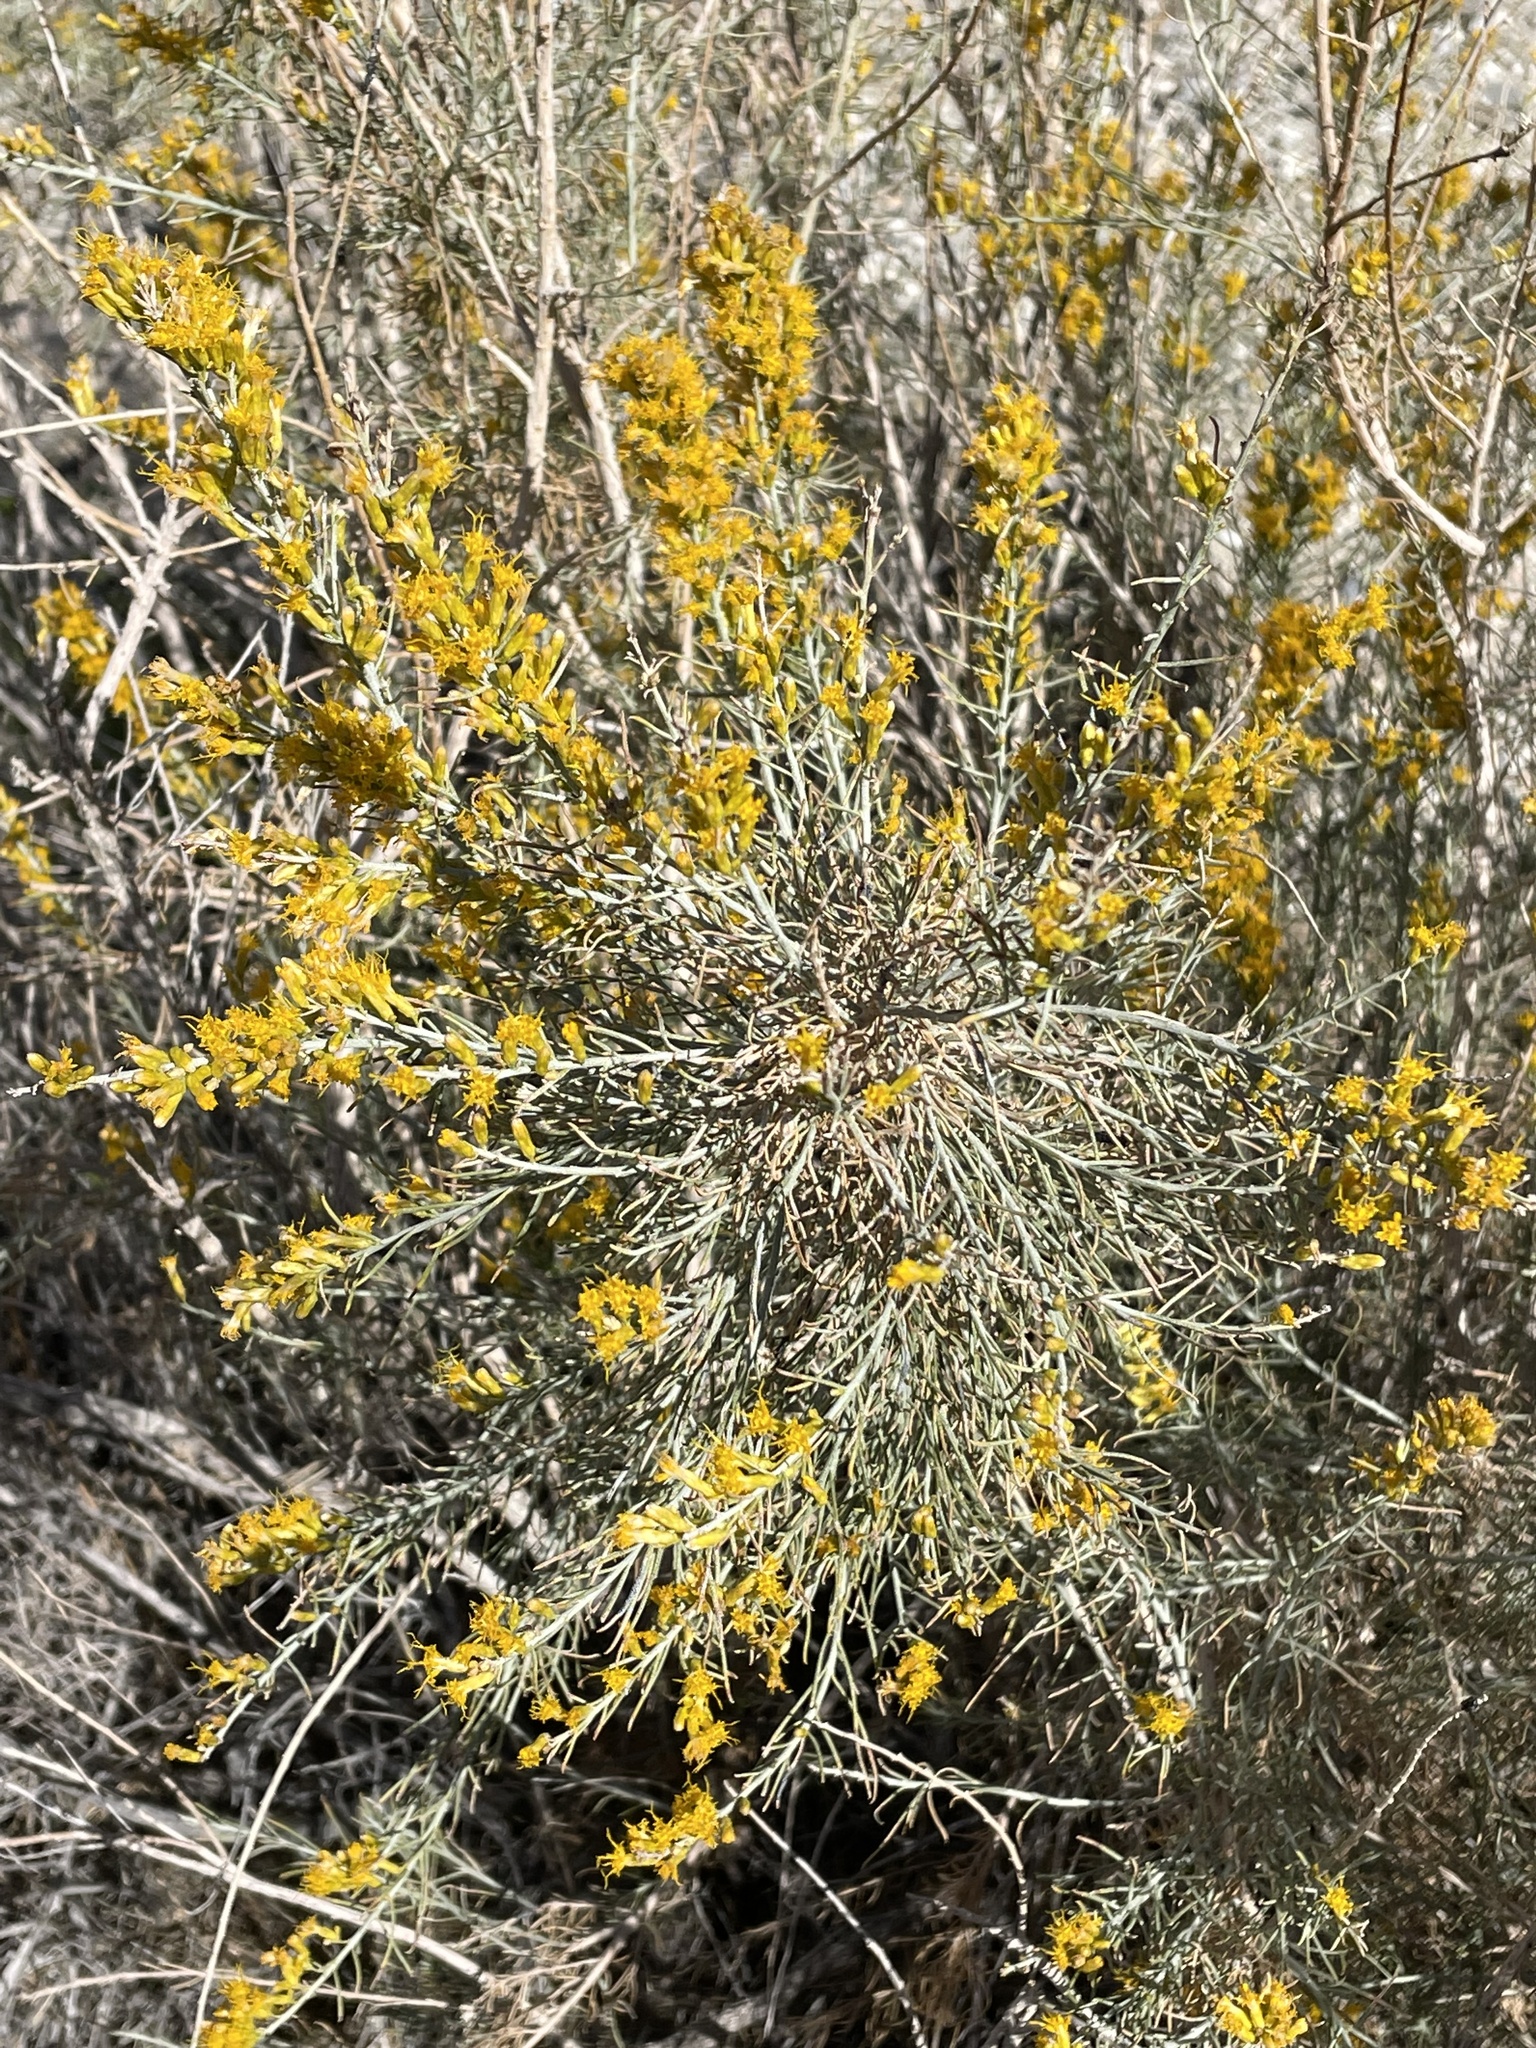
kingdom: Plantae
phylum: Tracheophyta
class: Magnoliopsida
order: Asterales
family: Asteraceae
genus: Ericameria
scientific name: Ericameria paniculata
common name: Punctate rabbitbrush
